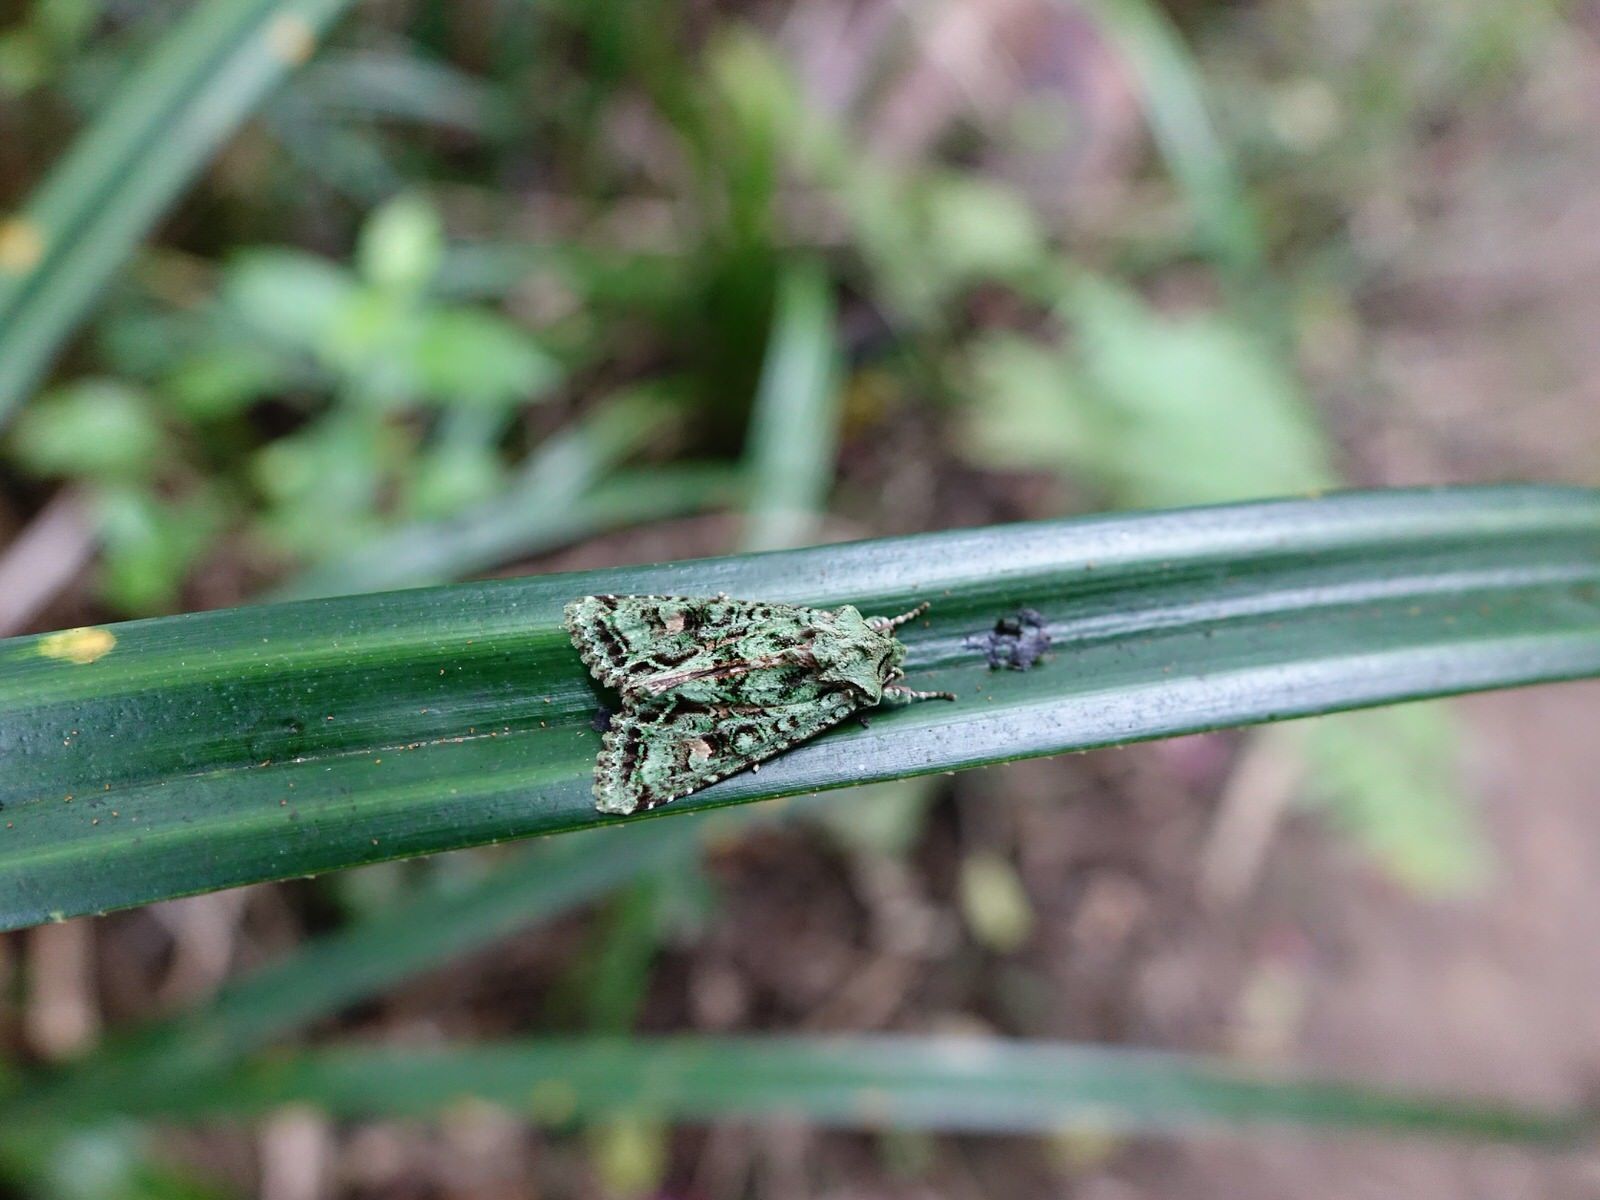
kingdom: Animalia
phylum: Arthropoda
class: Insecta
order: Lepidoptera
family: Noctuidae
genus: Ichneutica
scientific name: Ichneutica
